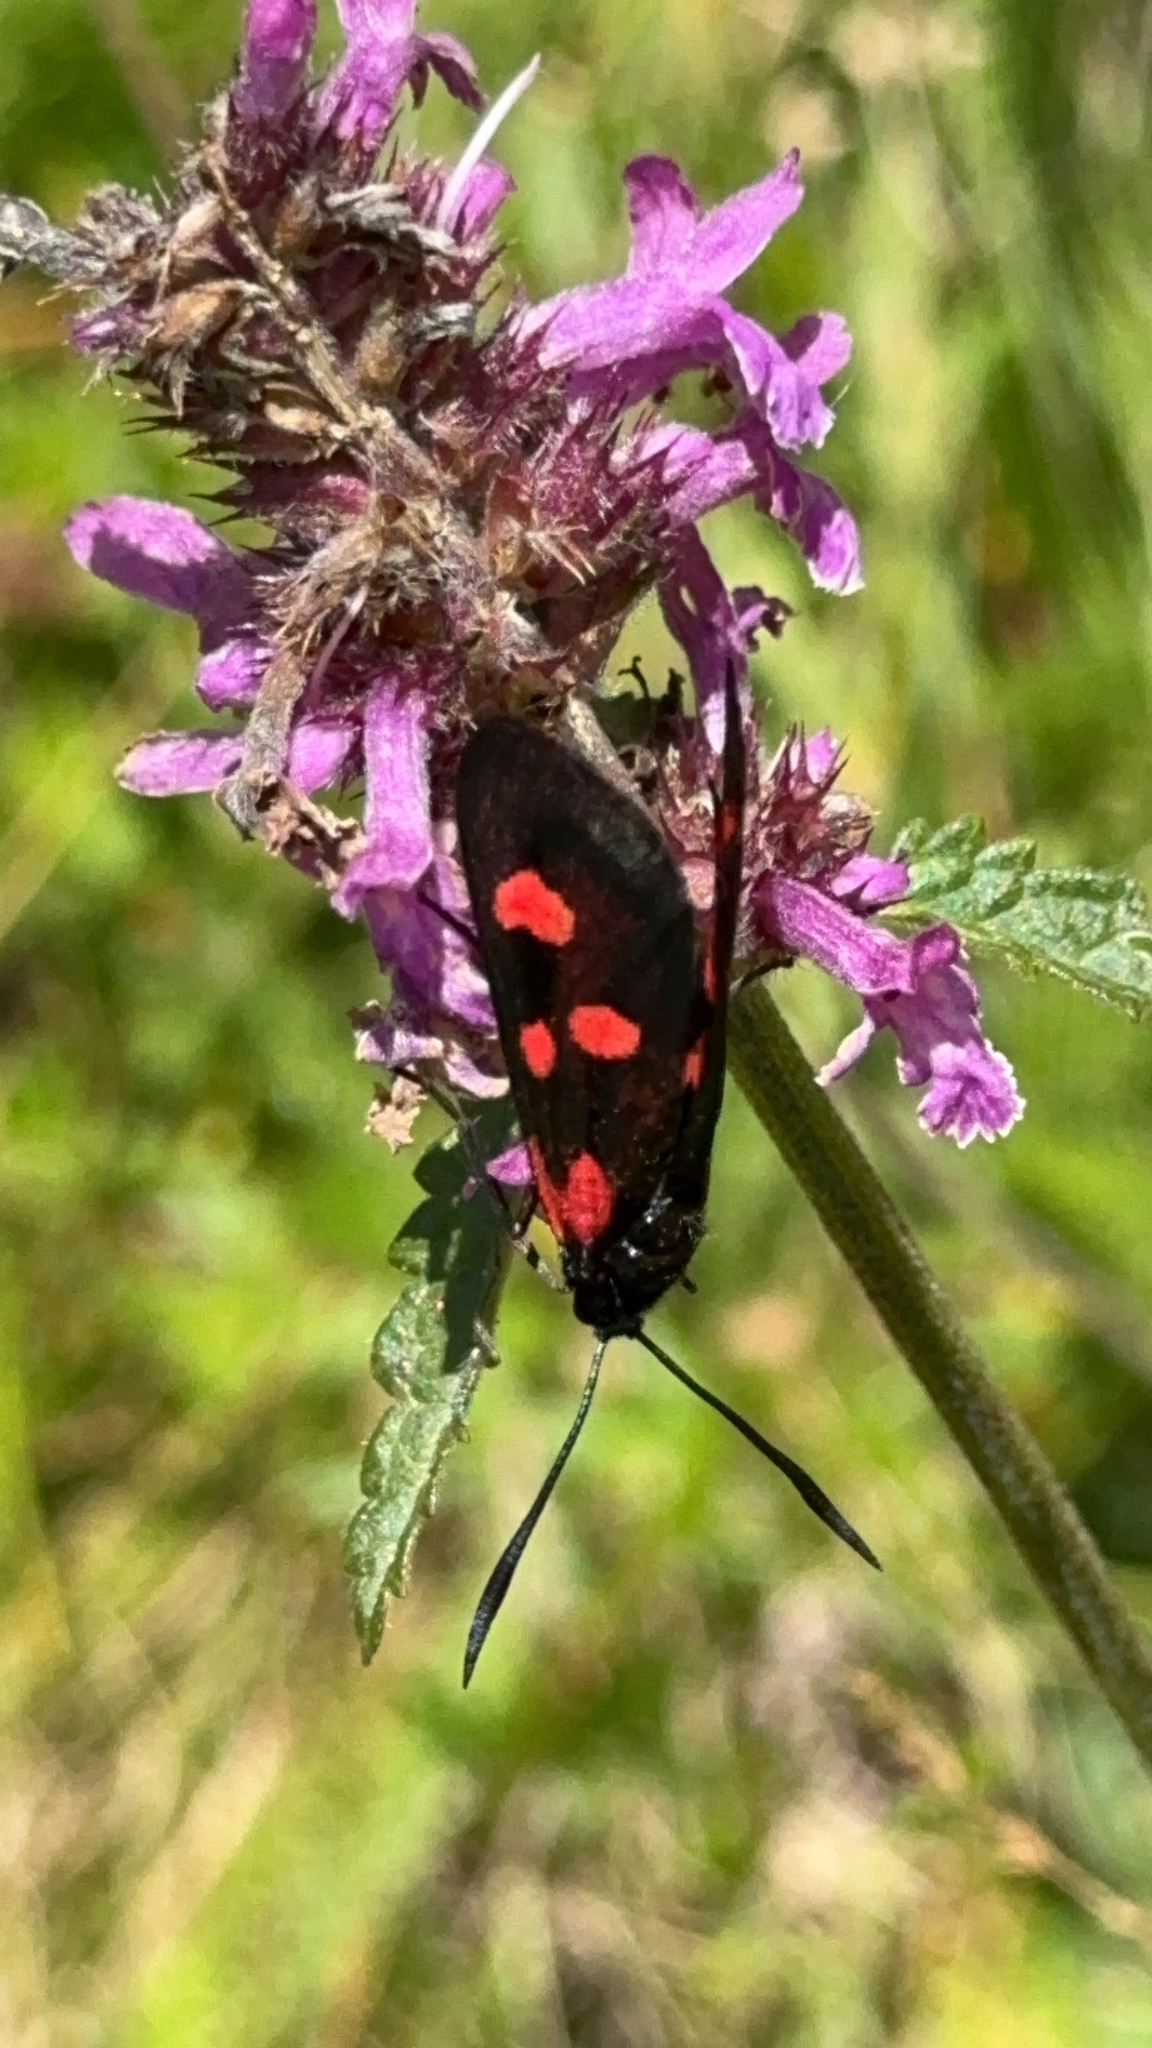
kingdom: Animalia
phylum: Arthropoda
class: Insecta
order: Lepidoptera
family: Zygaenidae
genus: Zygaena
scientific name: Zygaena lonicerae
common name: Narrow-bordered five-spot burnet
